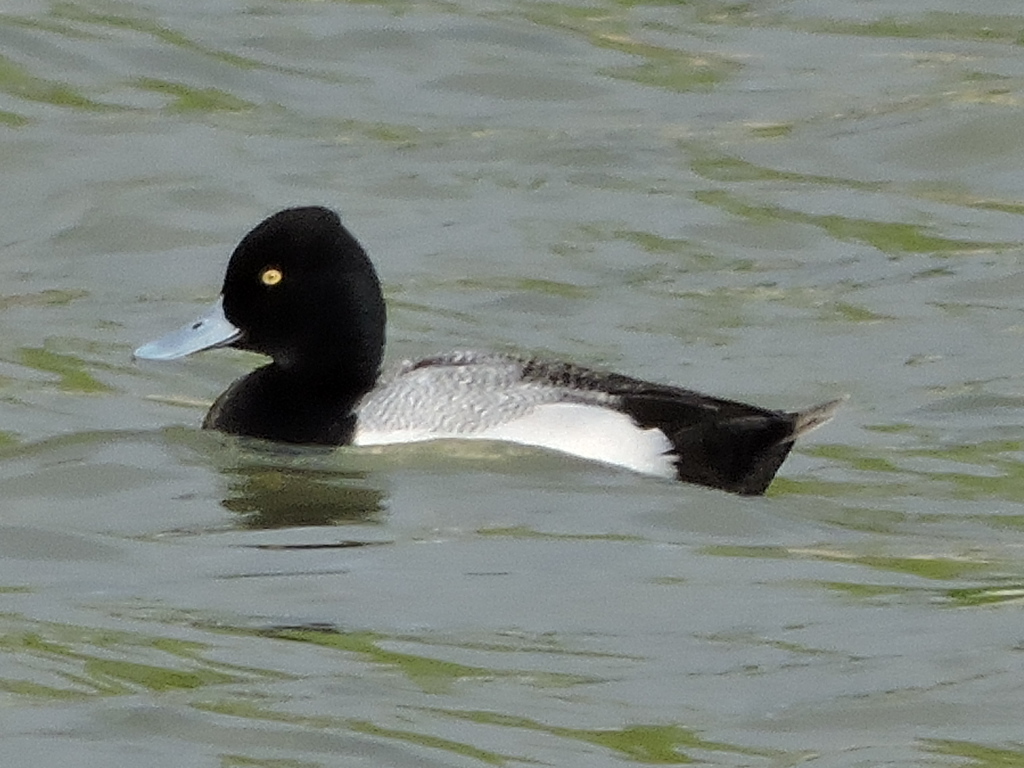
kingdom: Animalia
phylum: Chordata
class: Aves
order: Anseriformes
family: Anatidae
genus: Aythya
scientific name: Aythya affinis
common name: Lesser scaup
